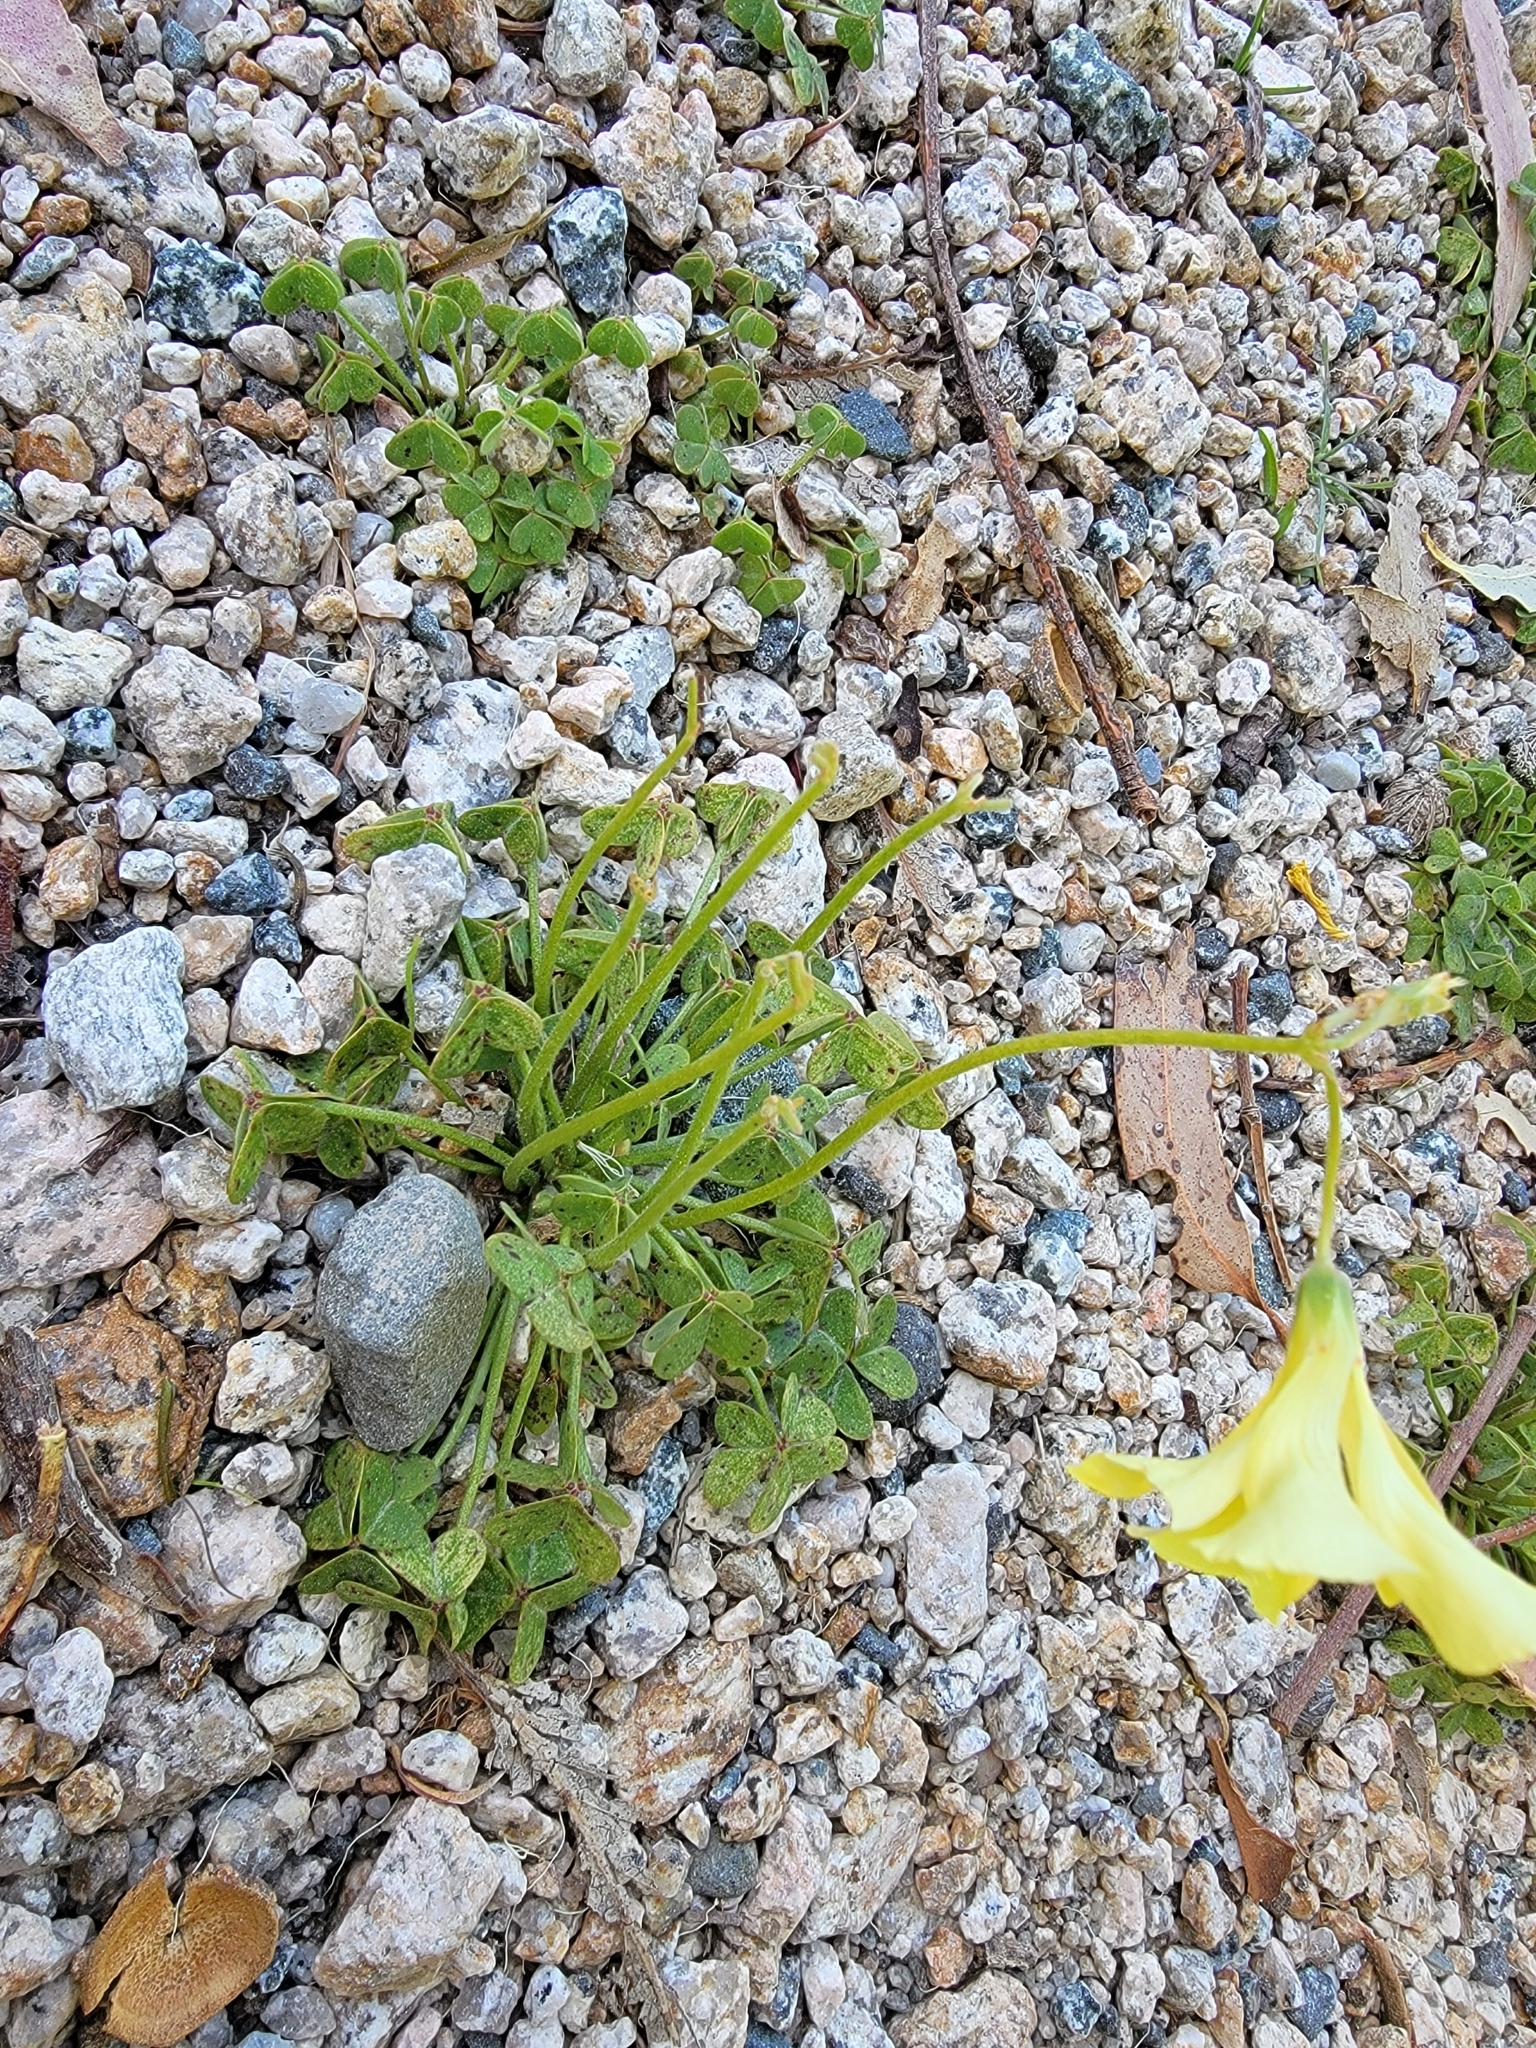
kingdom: Plantae
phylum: Tracheophyta
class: Magnoliopsida
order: Oxalidales
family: Oxalidaceae
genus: Oxalis
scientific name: Oxalis pes-caprae
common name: Bermuda-buttercup
